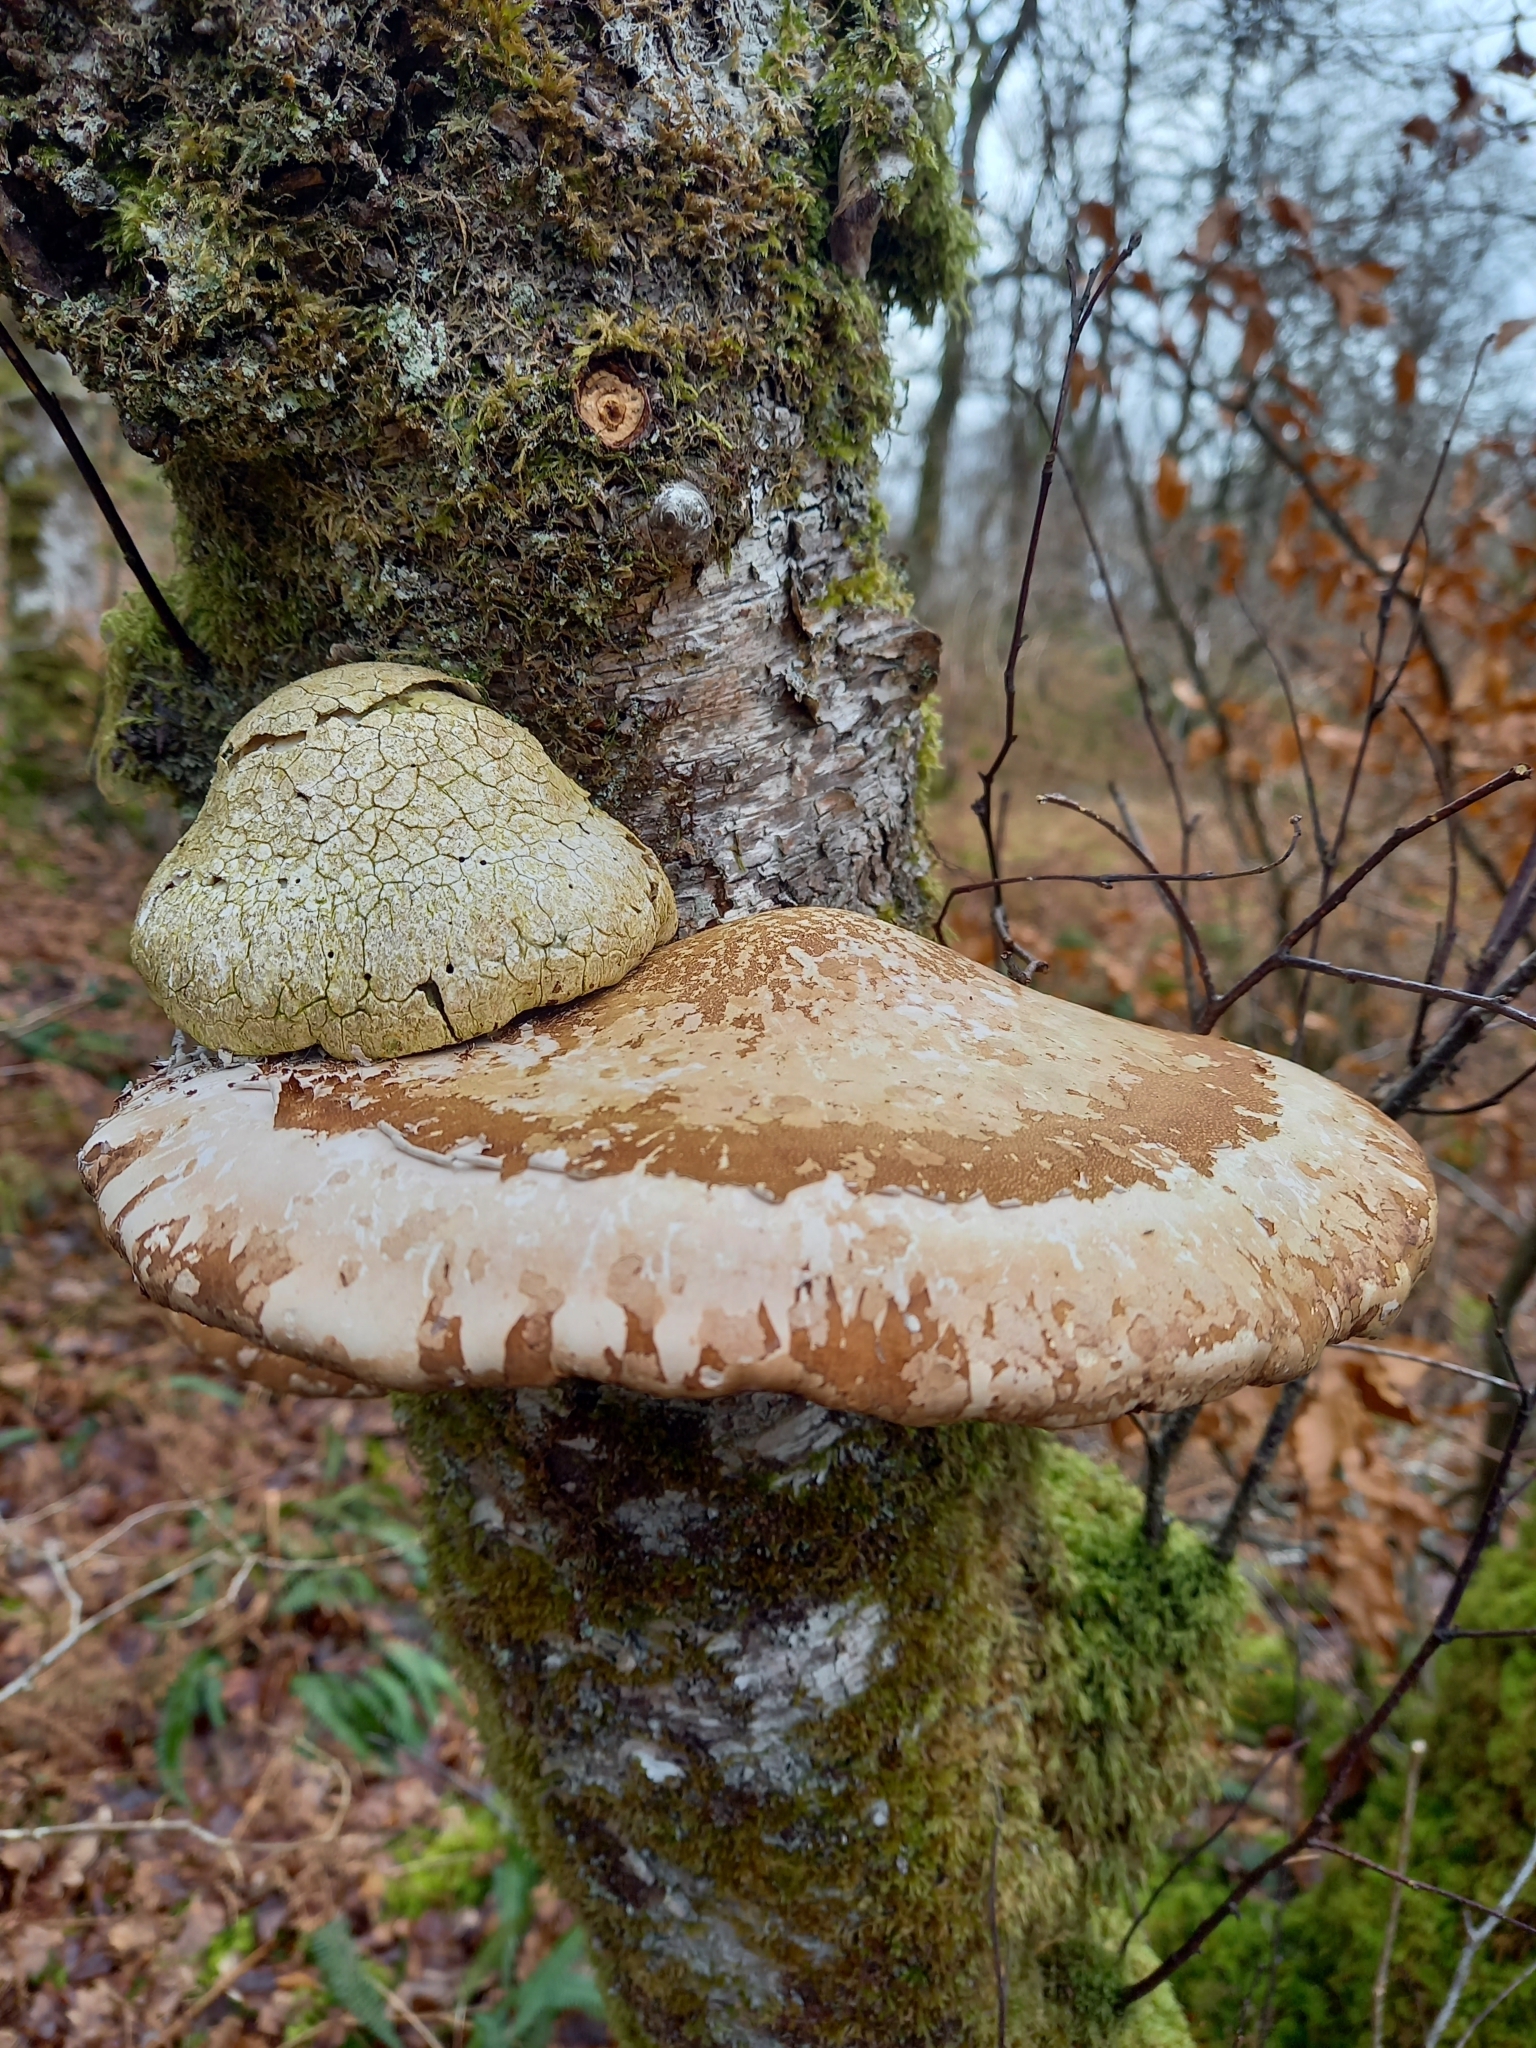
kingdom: Fungi
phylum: Basidiomycota
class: Agaricomycetes
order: Polyporales
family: Fomitopsidaceae
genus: Fomitopsis
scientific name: Fomitopsis betulina
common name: Birch polypore
